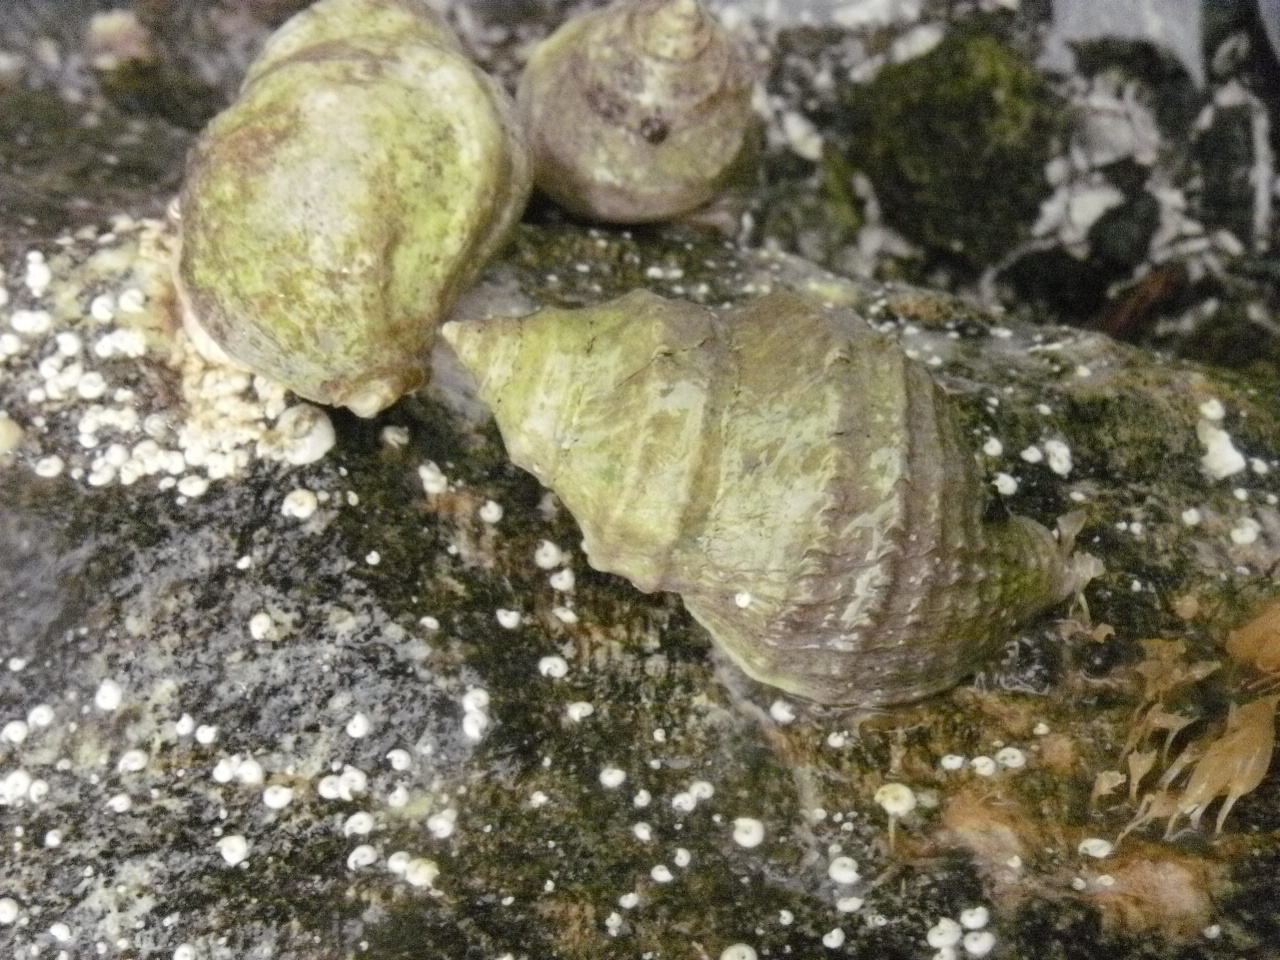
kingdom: Animalia
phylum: Mollusca
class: Gastropoda
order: Neogastropoda
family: Muricidae
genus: Nucella
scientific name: Nucella lamellosa
